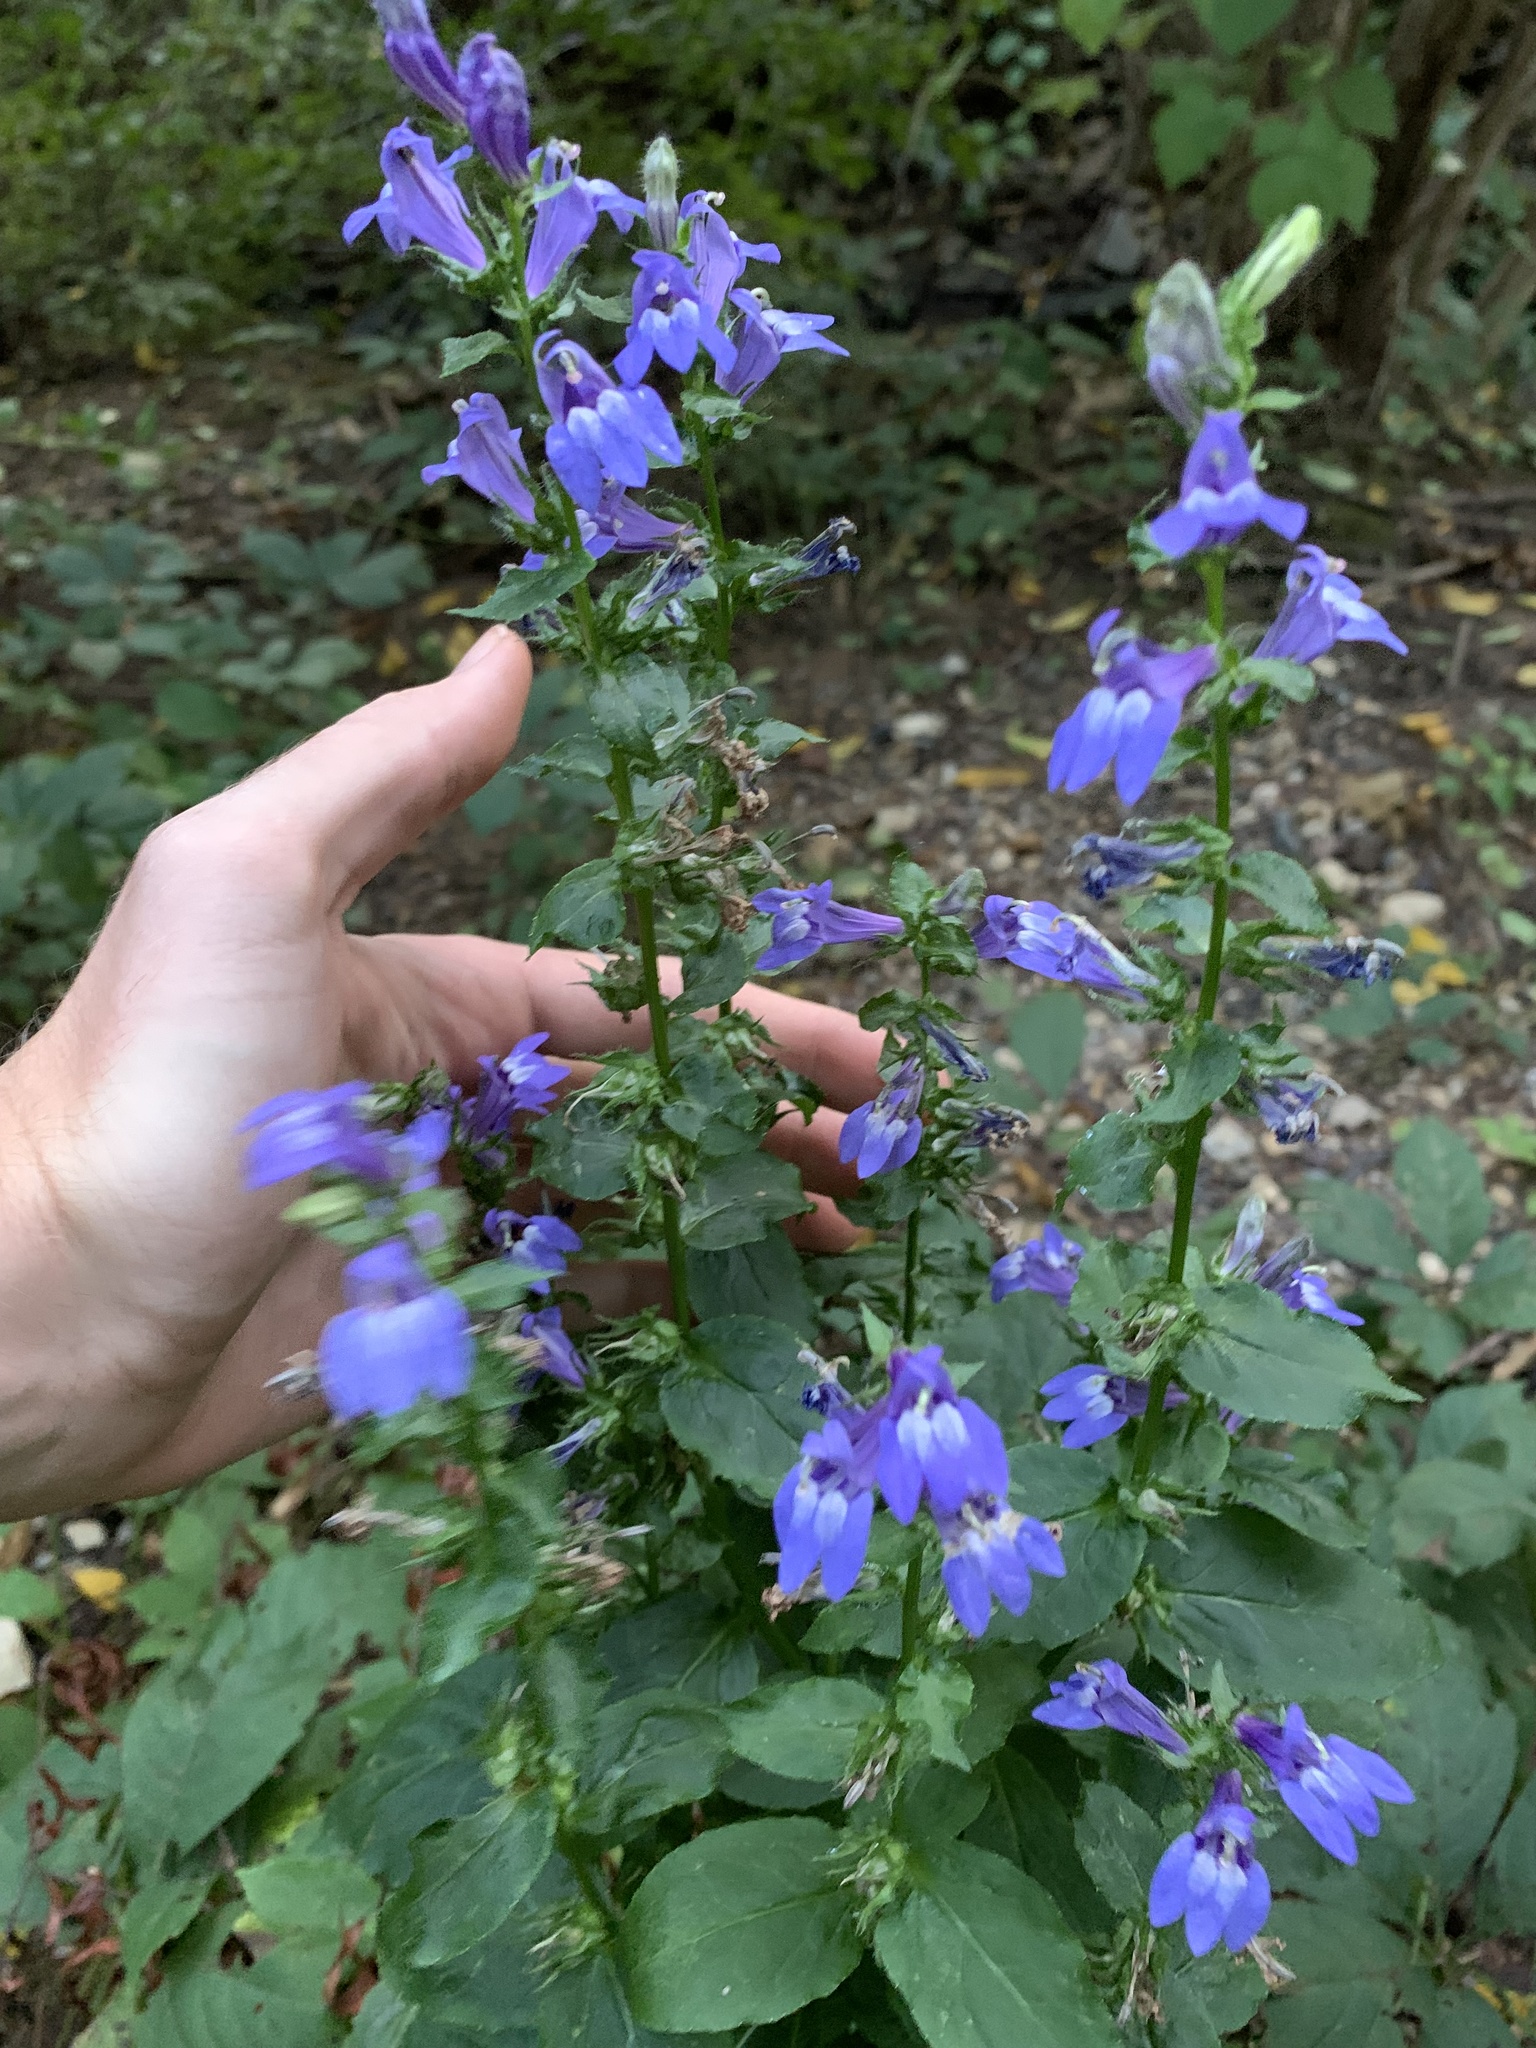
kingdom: Plantae
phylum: Tracheophyta
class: Magnoliopsida
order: Asterales
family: Campanulaceae
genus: Lobelia
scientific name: Lobelia siphilitica
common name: Great lobelia
